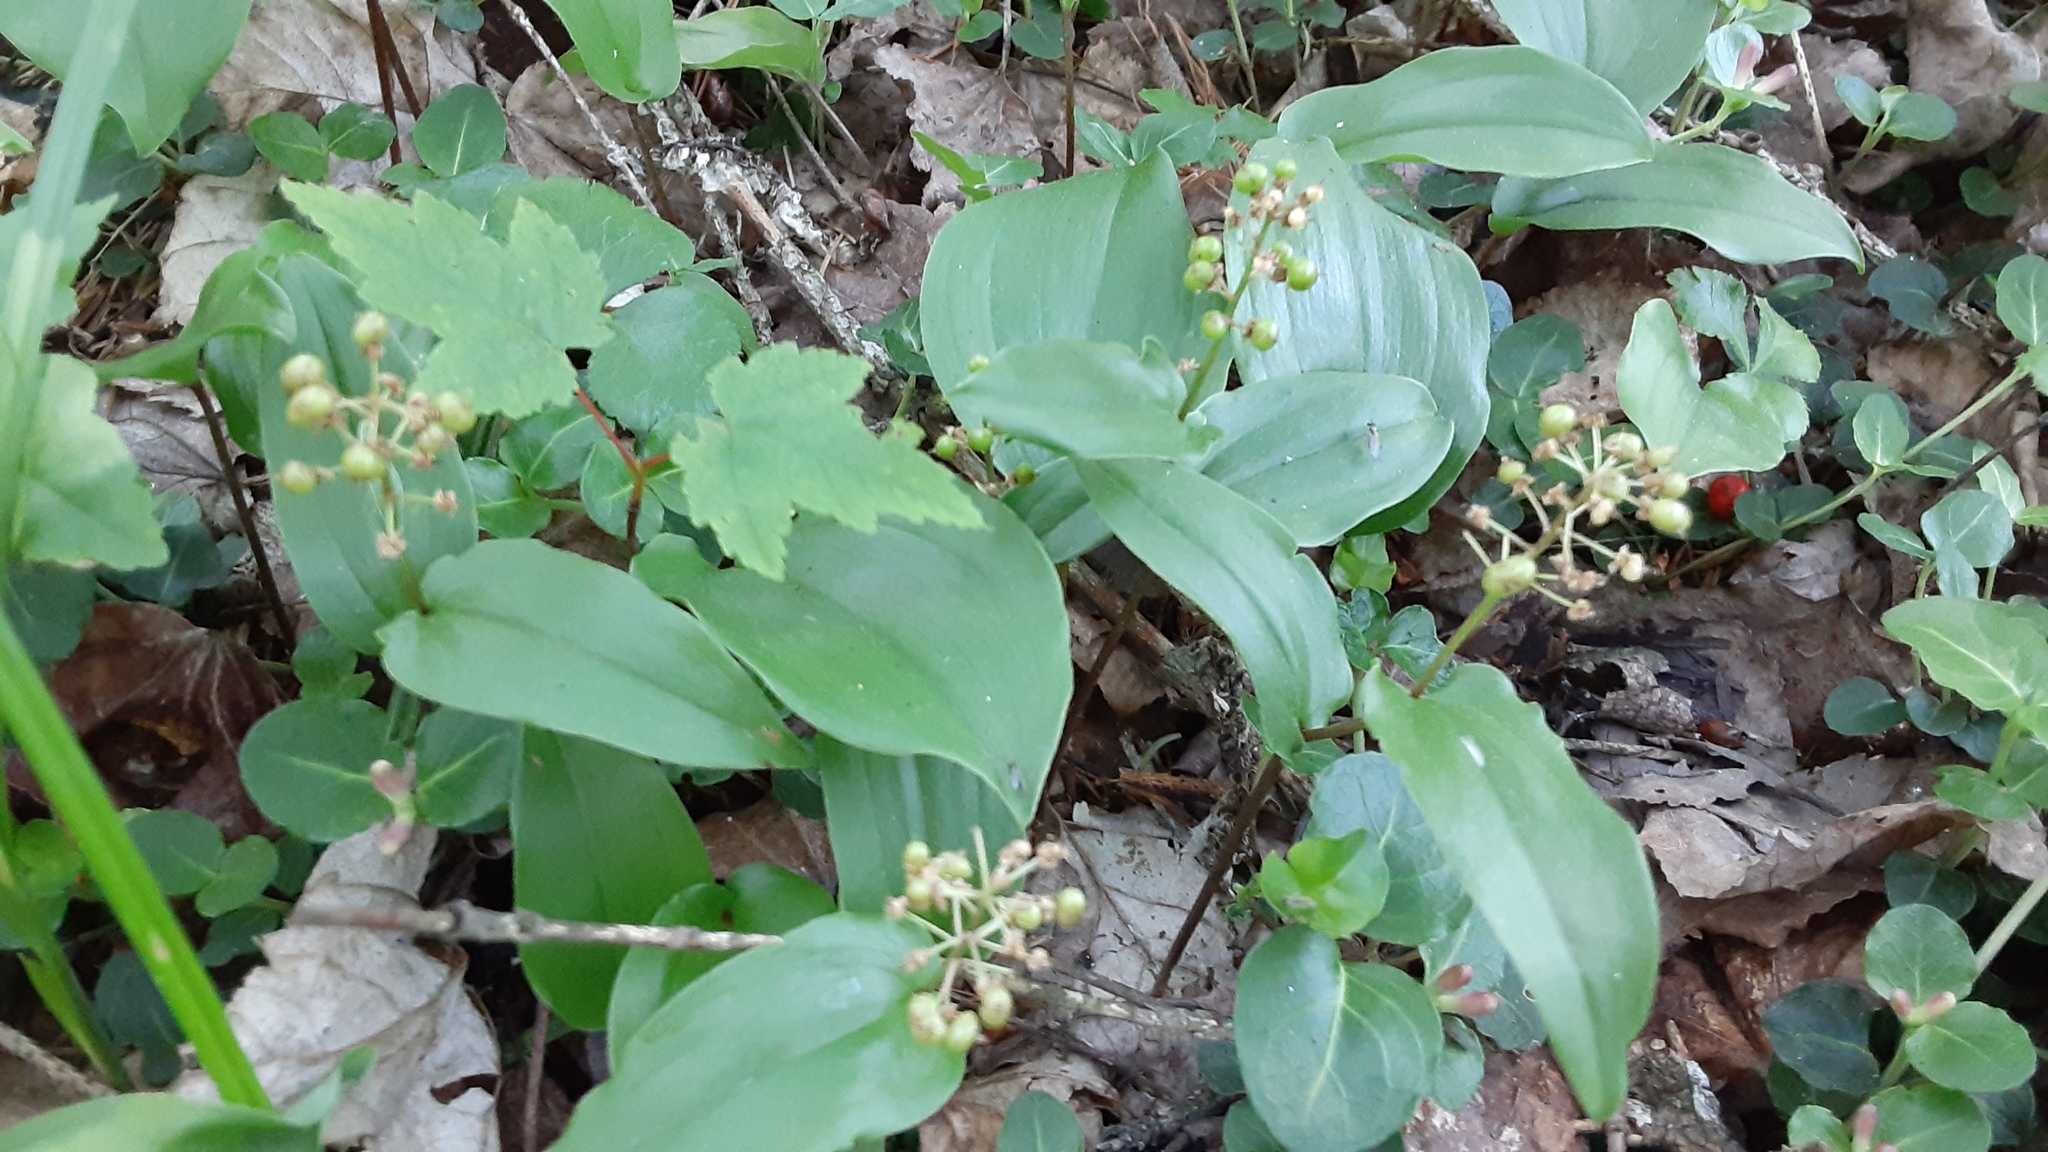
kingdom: Plantae
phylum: Tracheophyta
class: Liliopsida
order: Asparagales
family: Asparagaceae
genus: Maianthemum
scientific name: Maianthemum canadense
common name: False lily-of-the-valley
